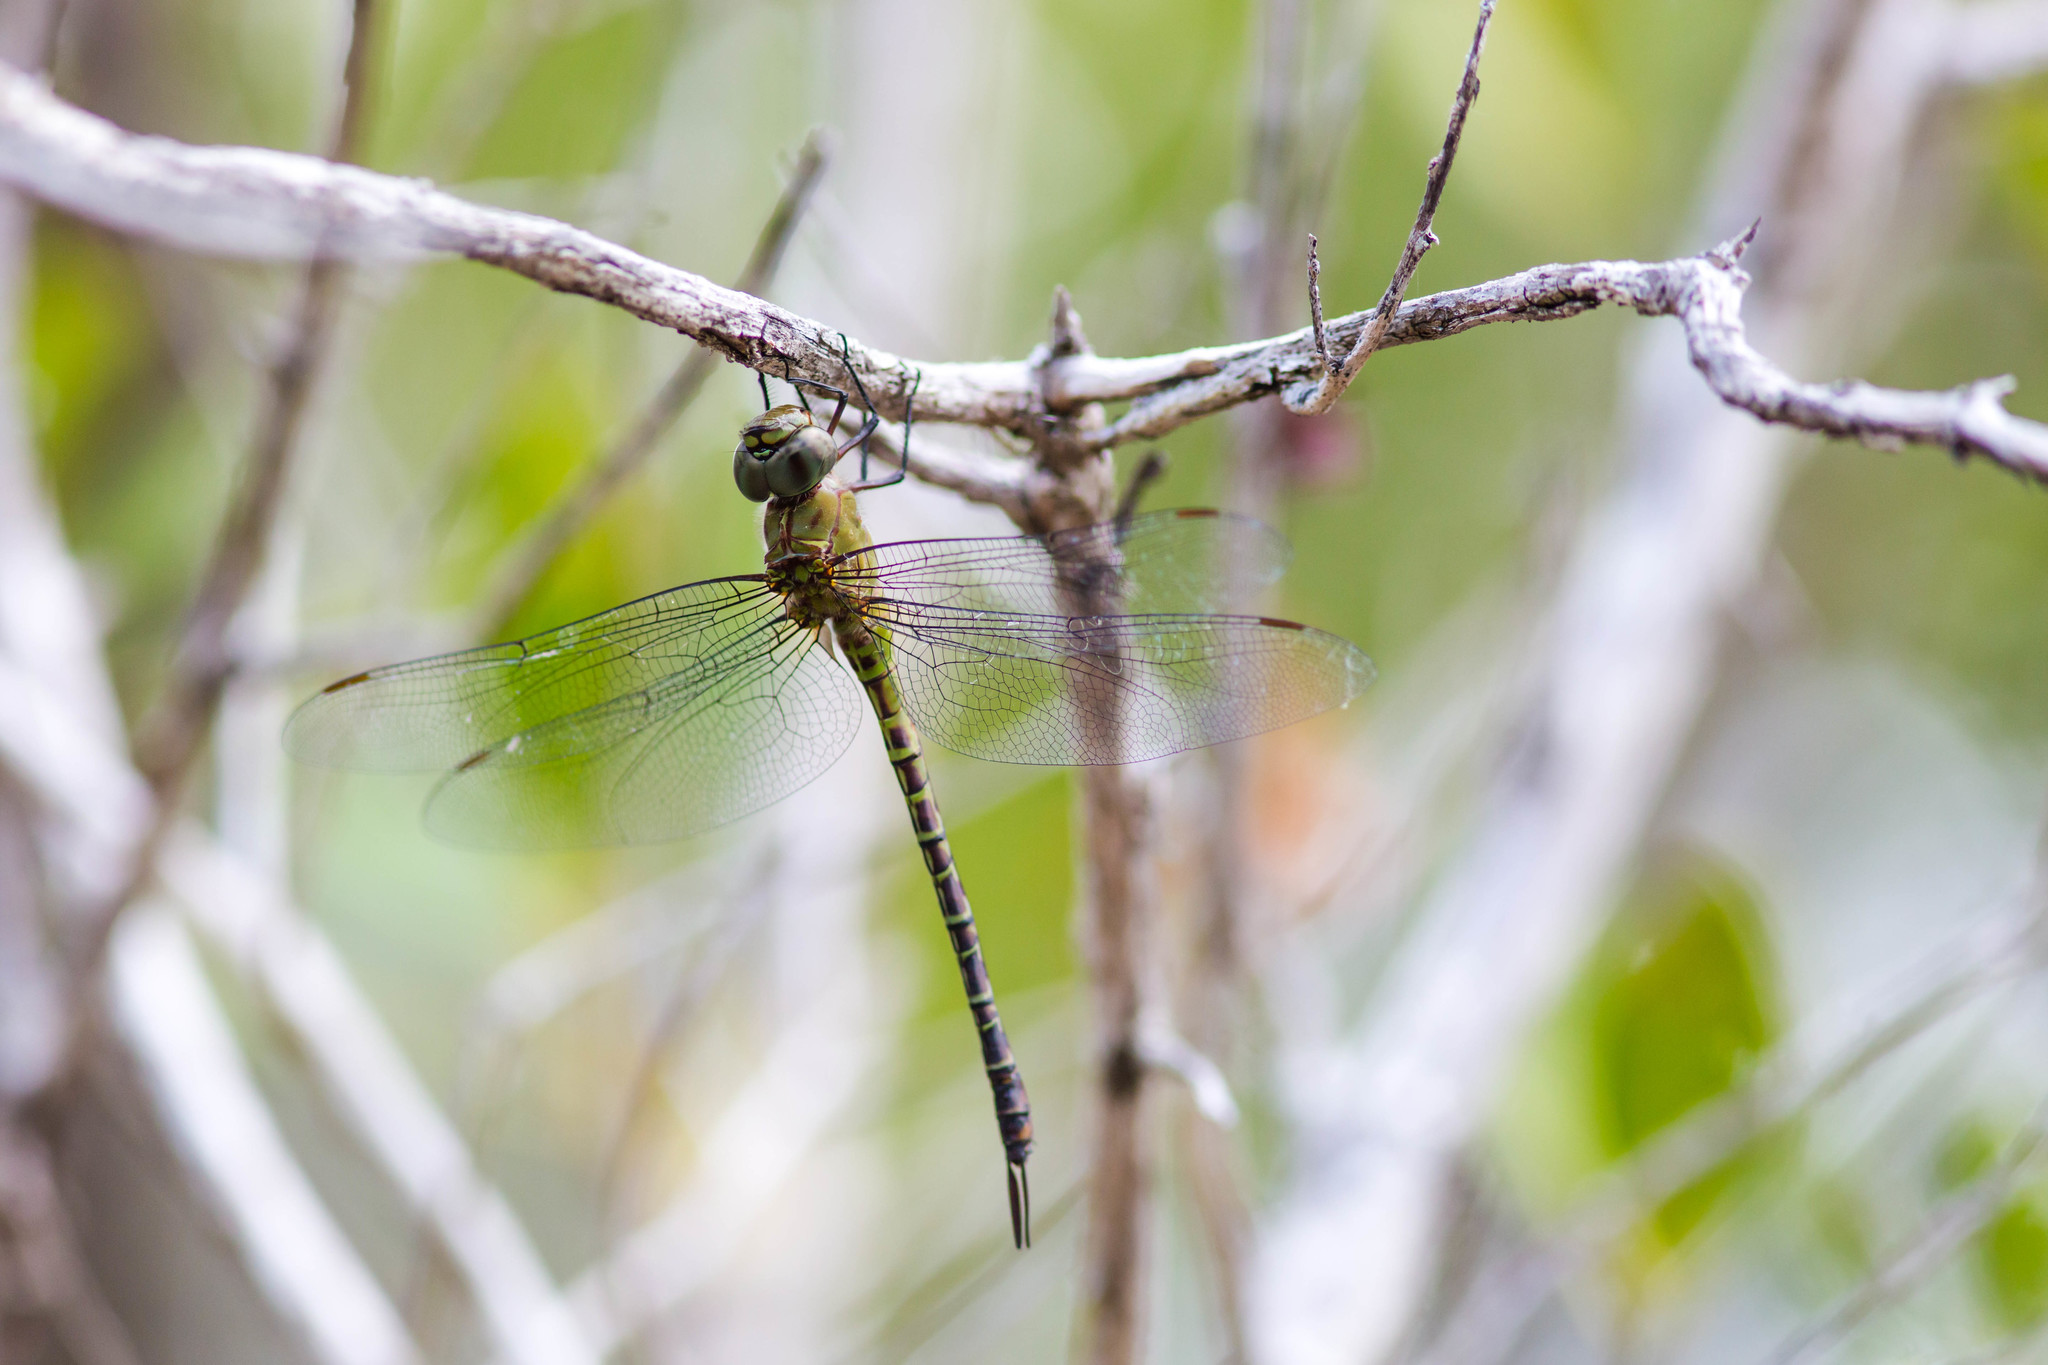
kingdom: Animalia
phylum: Arthropoda
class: Insecta
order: Odonata
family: Aeshnidae
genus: Coryphaeschna
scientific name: Coryphaeschna viriditas
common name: Mangrove darner
